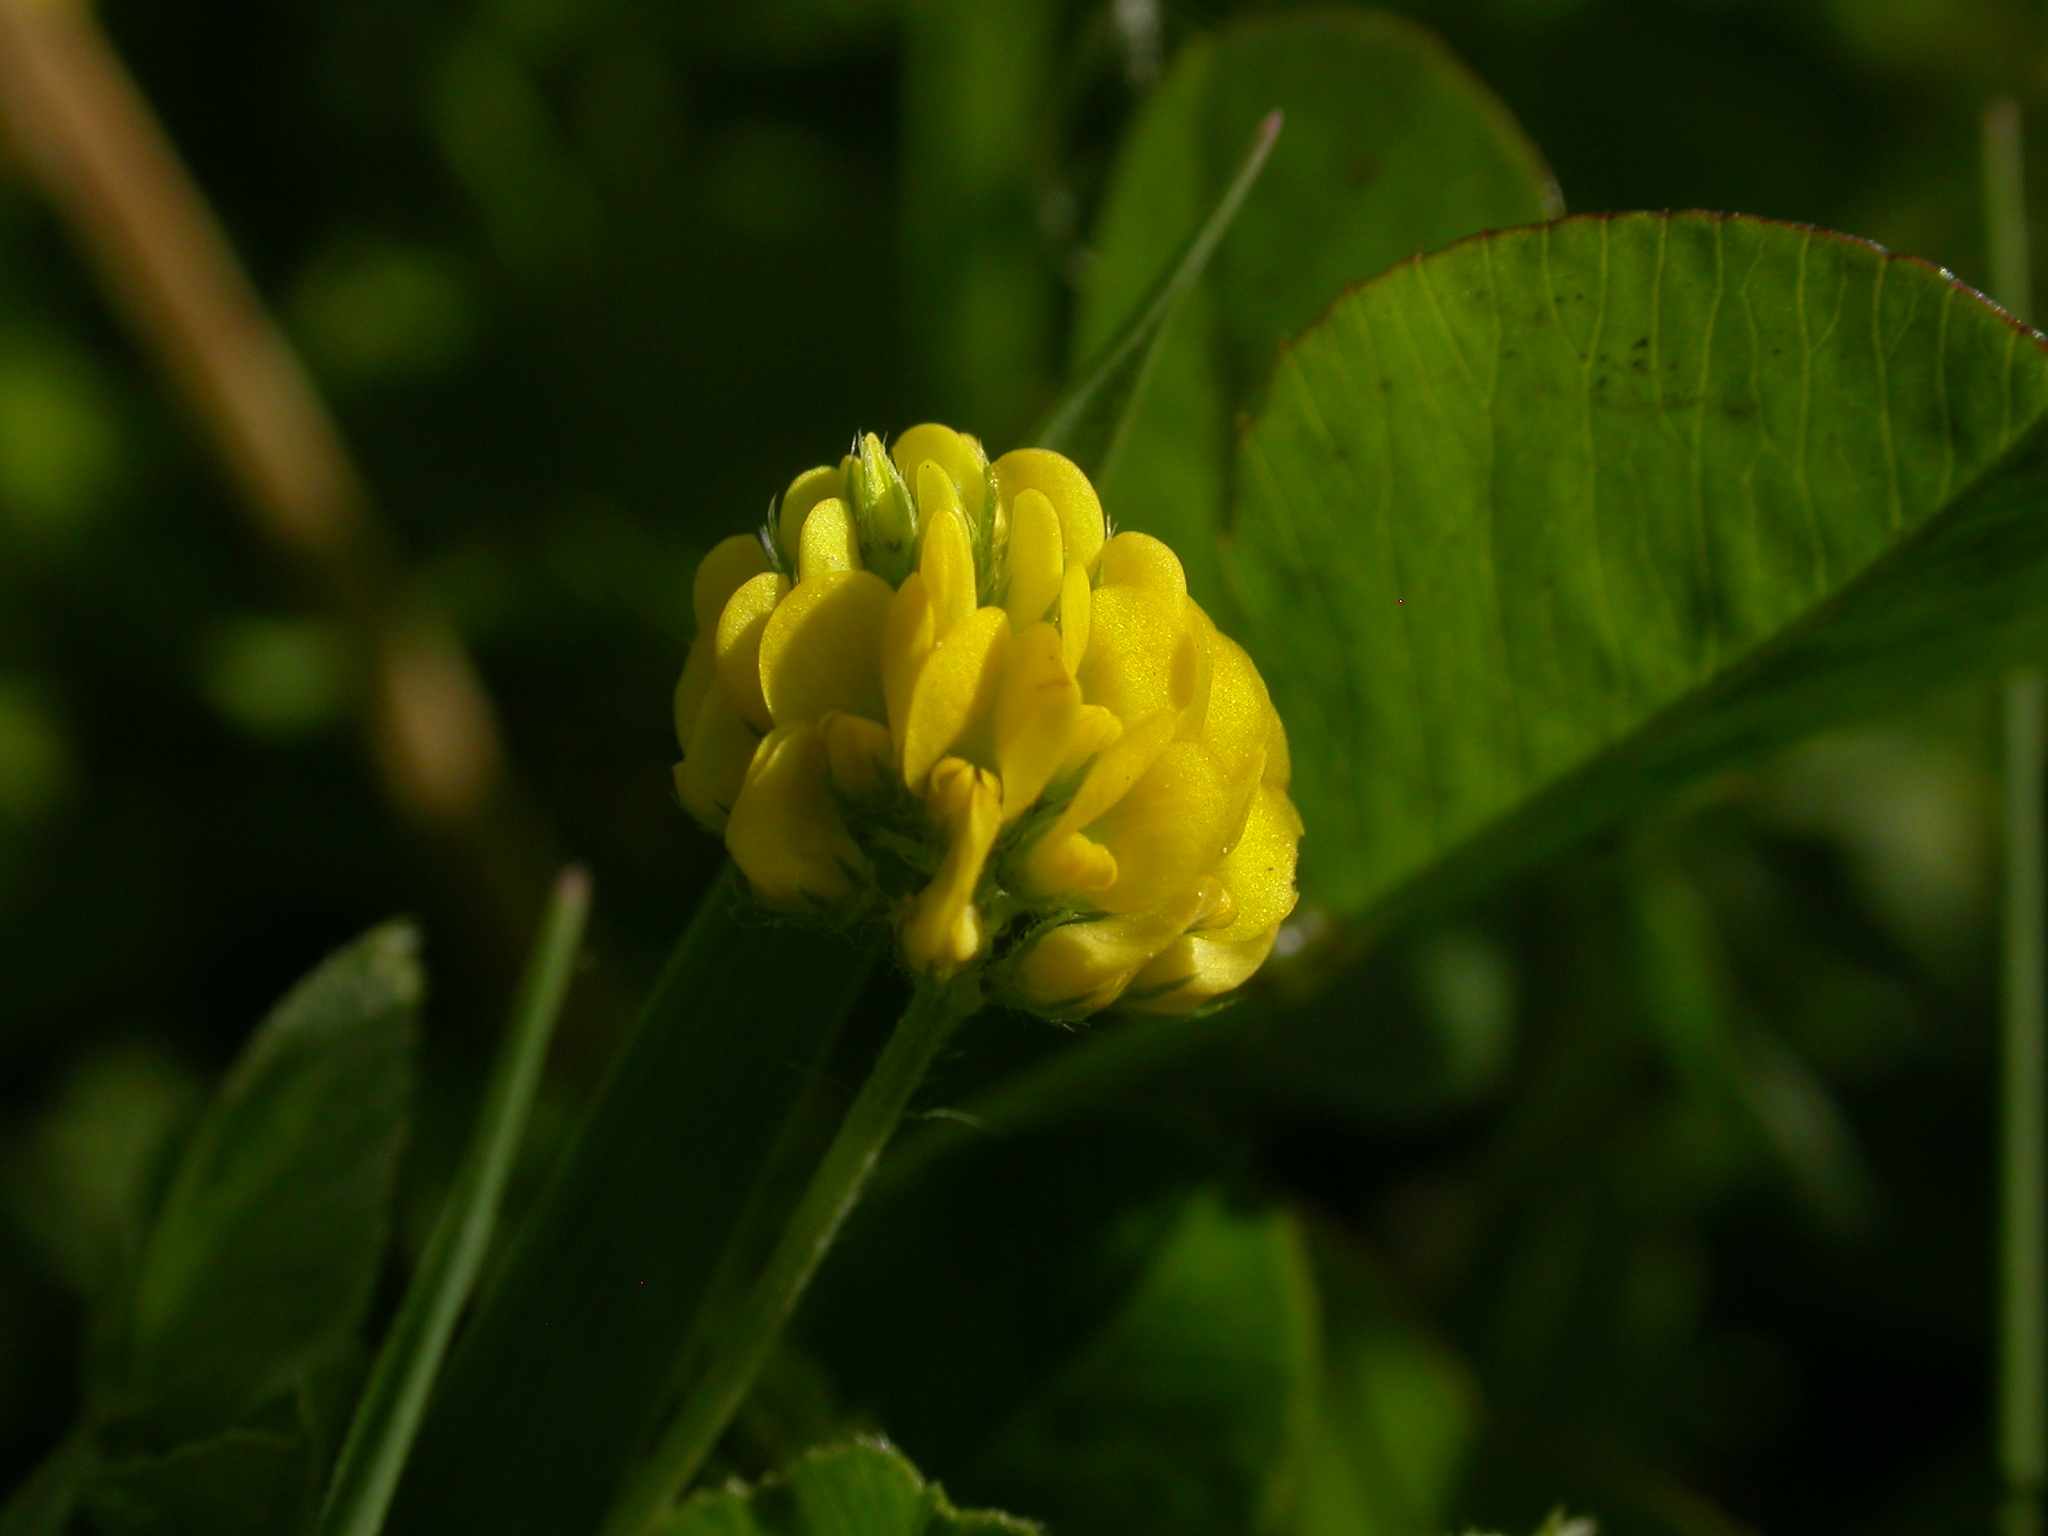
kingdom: Plantae
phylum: Tracheophyta
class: Magnoliopsida
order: Fabales
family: Fabaceae
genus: Medicago
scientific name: Medicago lupulina
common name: Black medick
